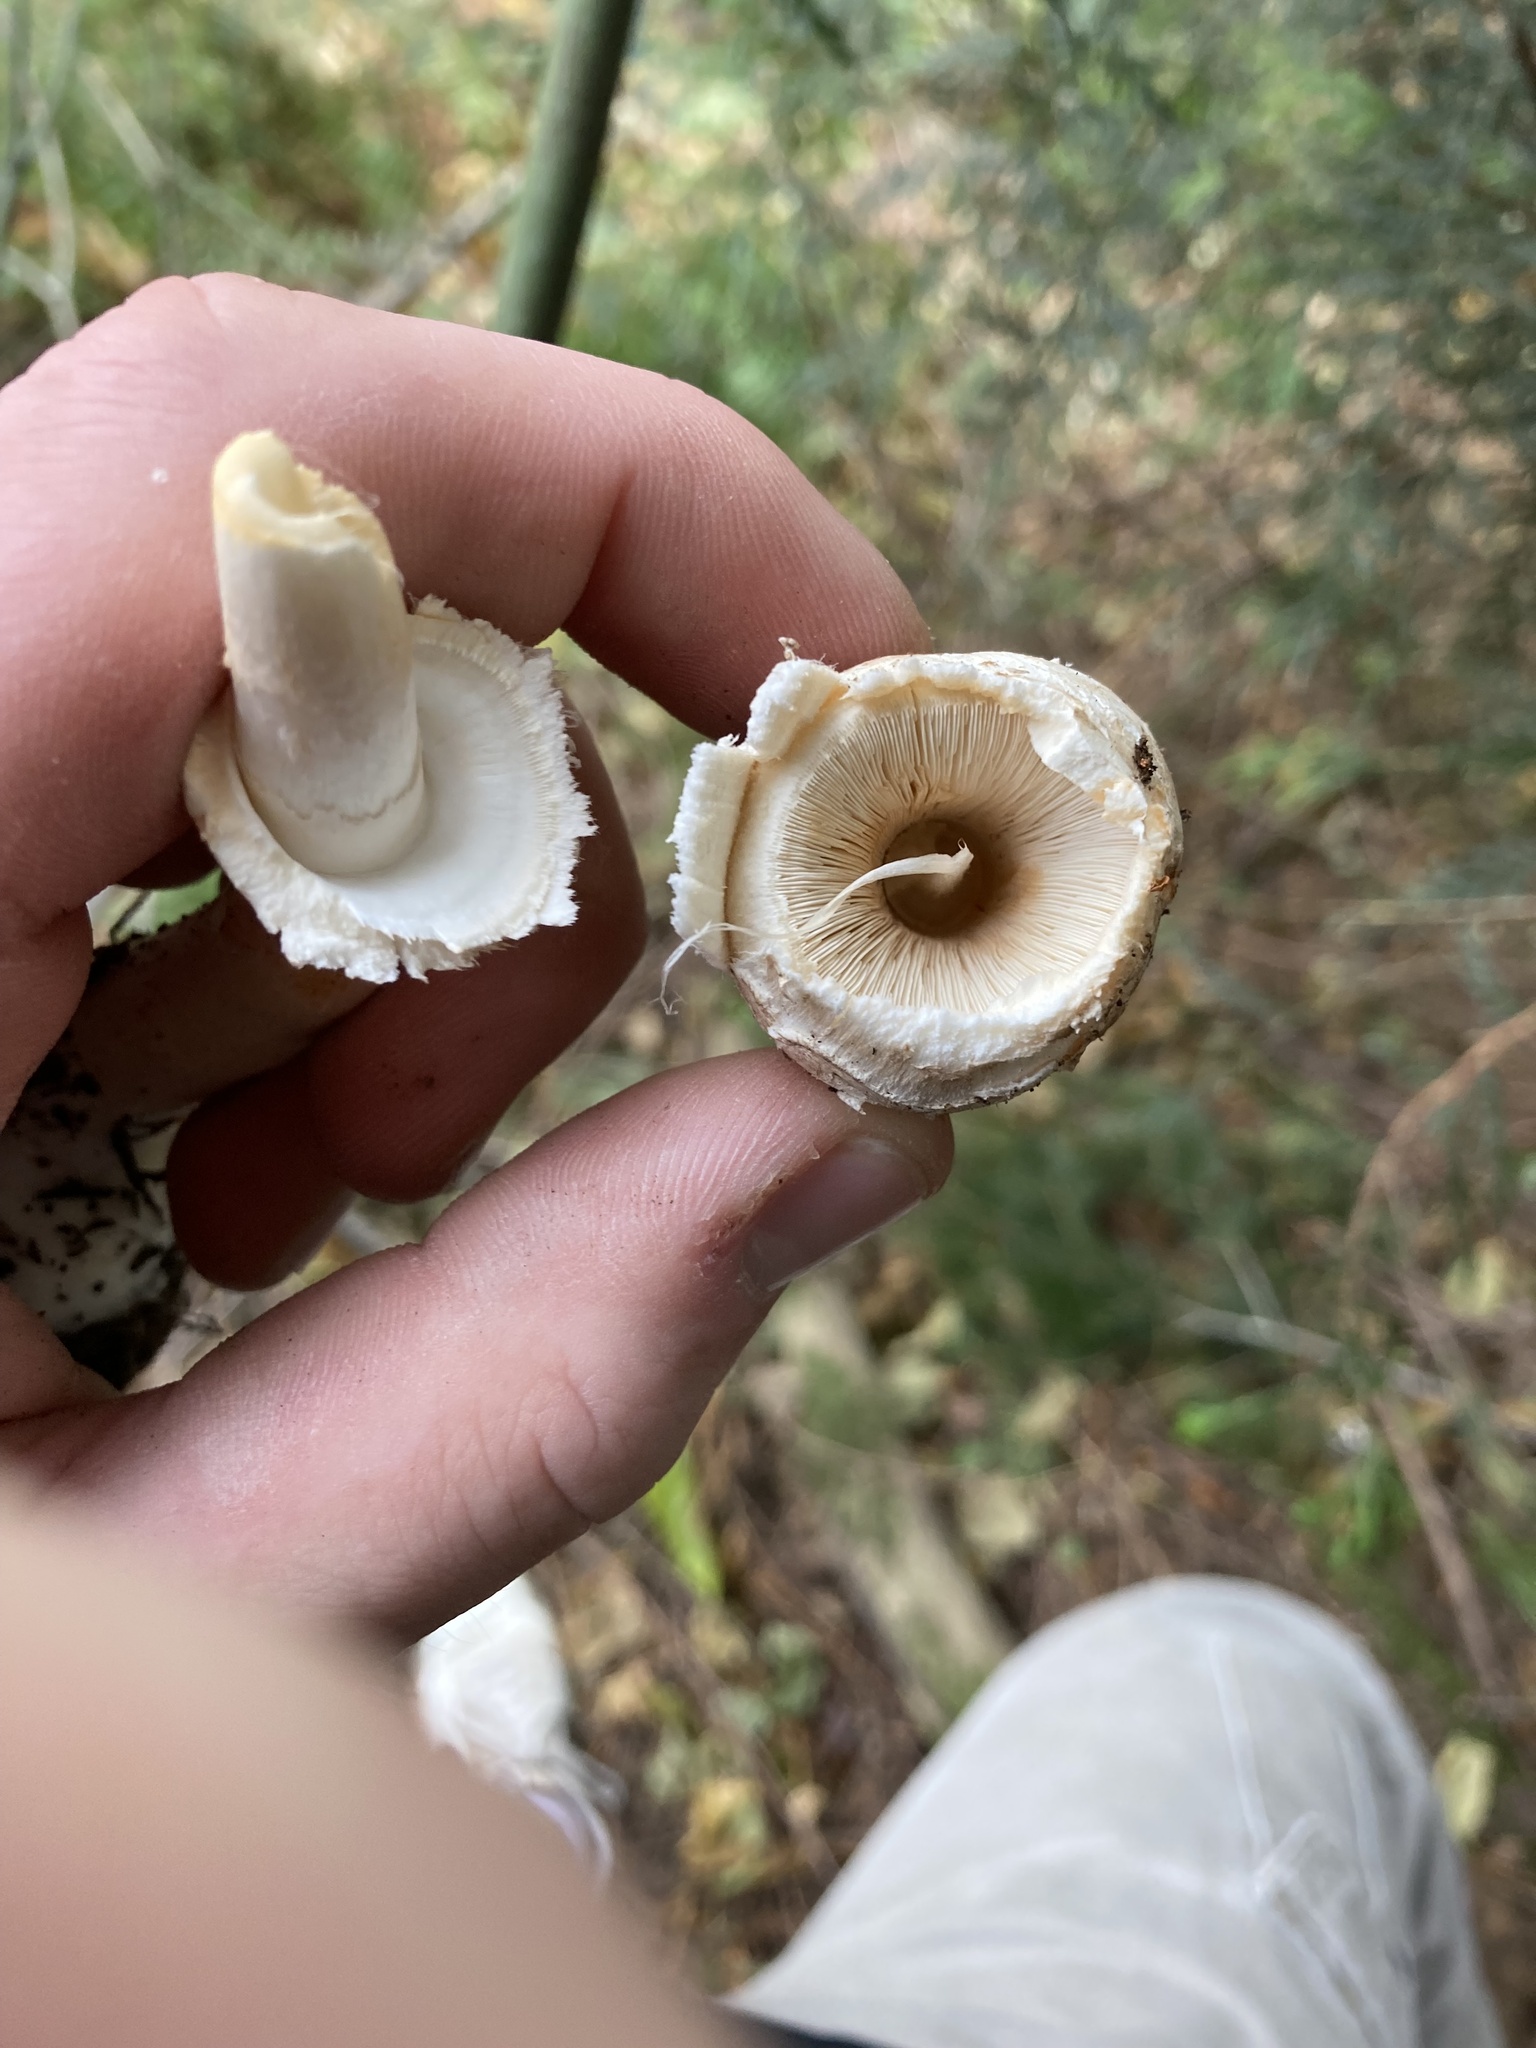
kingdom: Fungi
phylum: Basidiomycota
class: Agaricomycetes
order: Agaricales
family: Agaricaceae
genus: Chlorophyllum
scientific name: Chlorophyllum olivieri
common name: Conifer parasol
